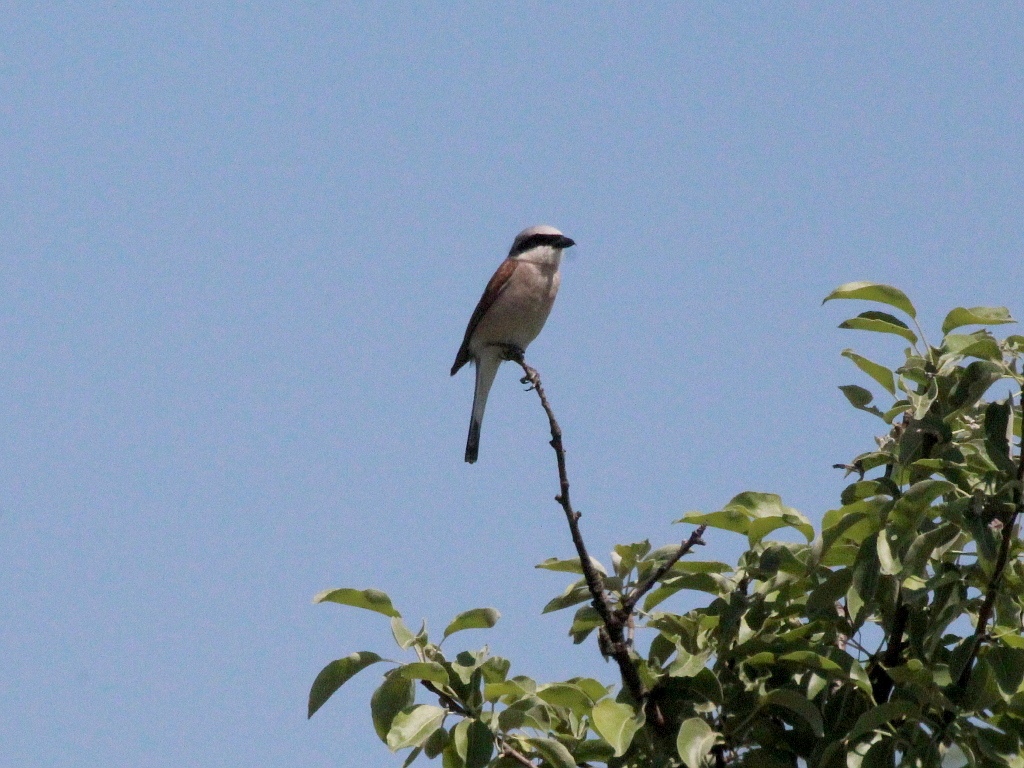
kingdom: Animalia
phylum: Chordata
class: Aves
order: Passeriformes
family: Laniidae
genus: Lanius
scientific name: Lanius collurio
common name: Red-backed shrike
